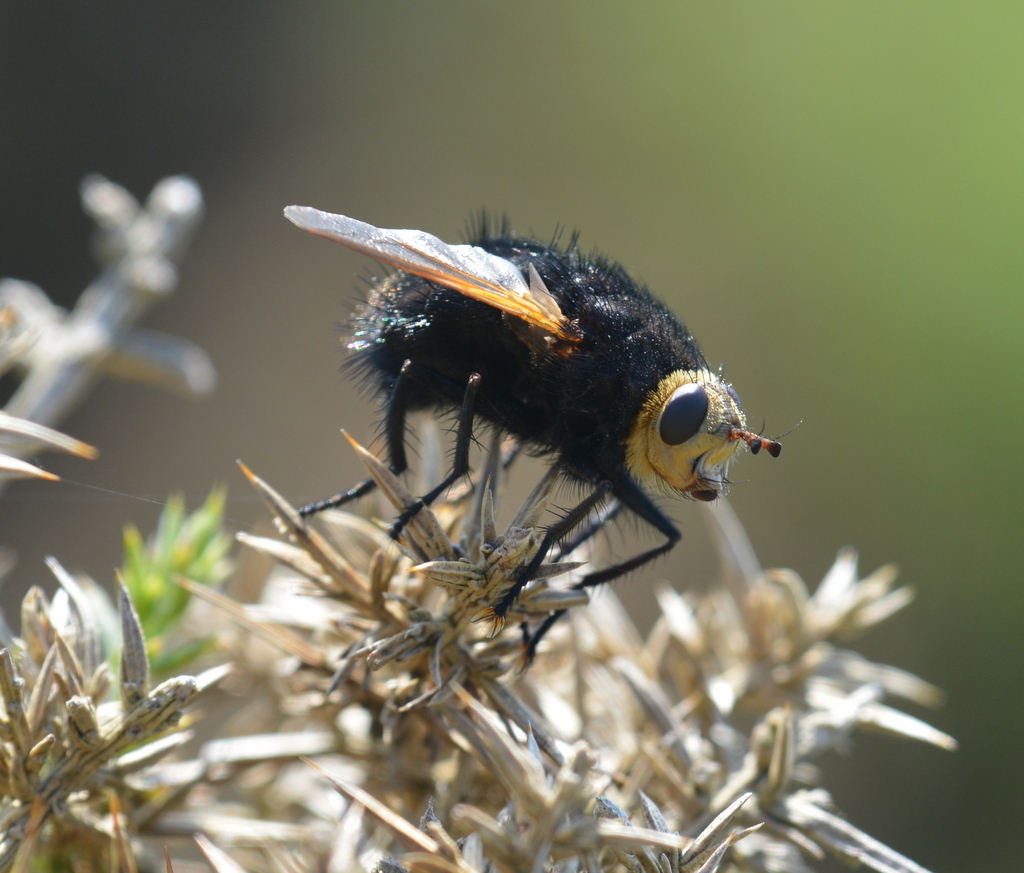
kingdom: Animalia
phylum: Arthropoda
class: Insecta
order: Diptera
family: Tachinidae
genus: Tachina
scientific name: Tachina grossa
